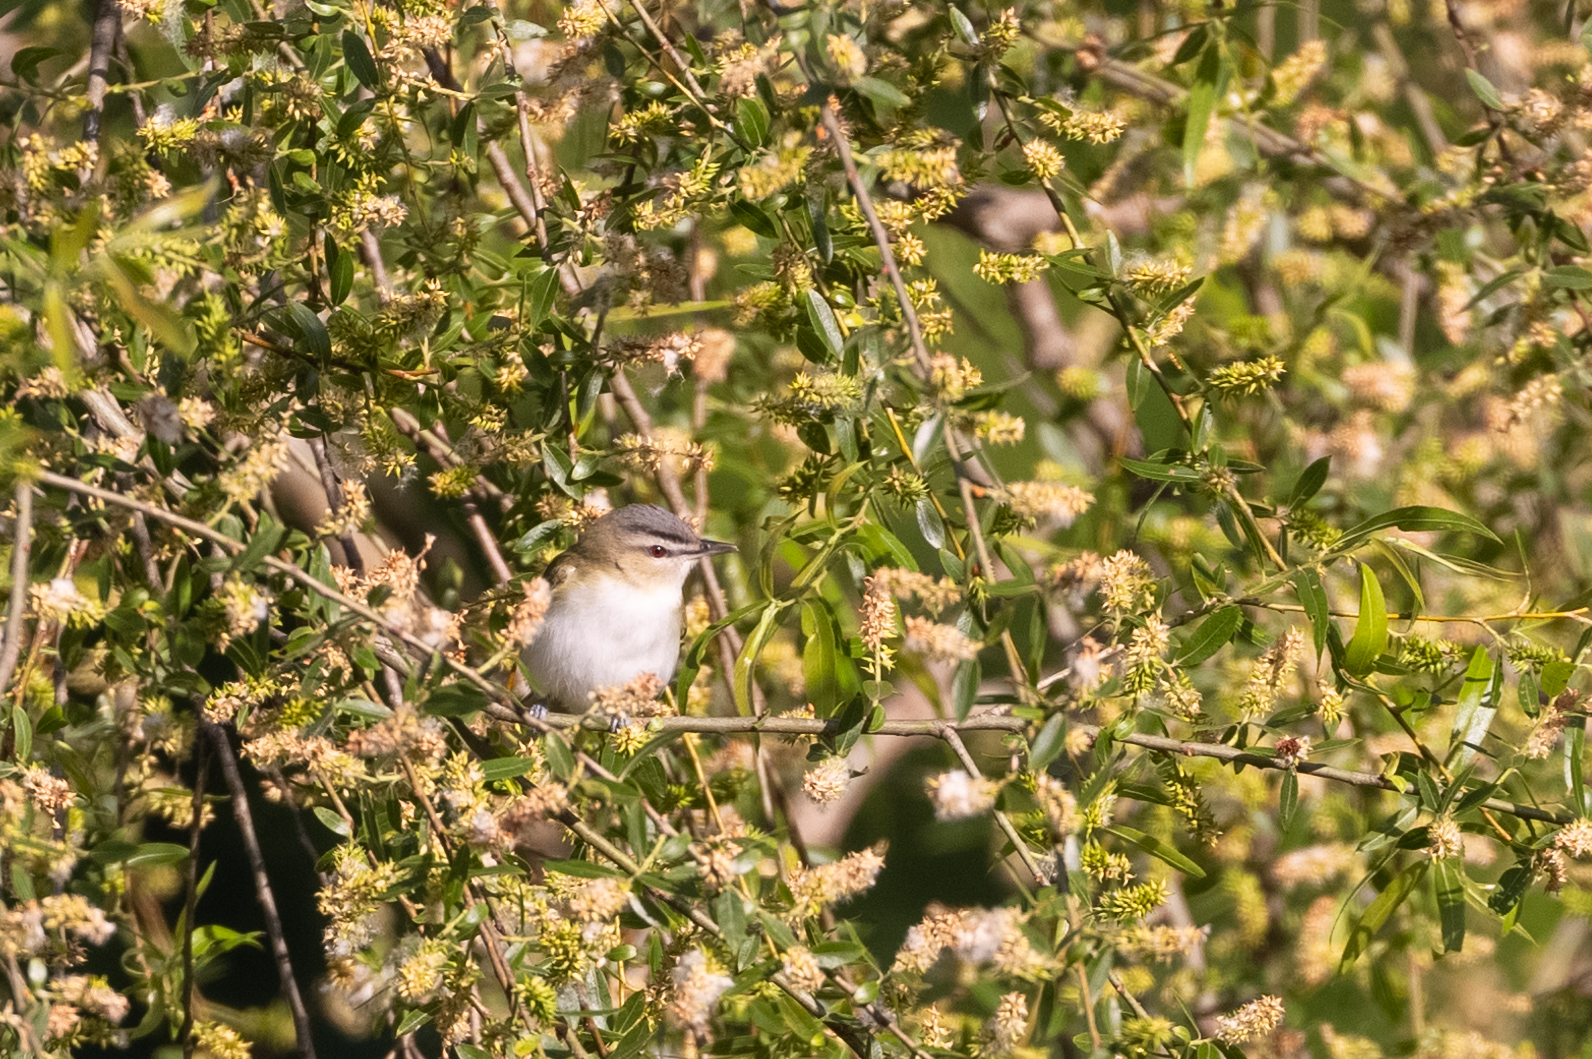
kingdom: Animalia
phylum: Chordata
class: Aves
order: Passeriformes
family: Vireonidae
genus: Vireo
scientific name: Vireo olivaceus
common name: Red-eyed vireo
